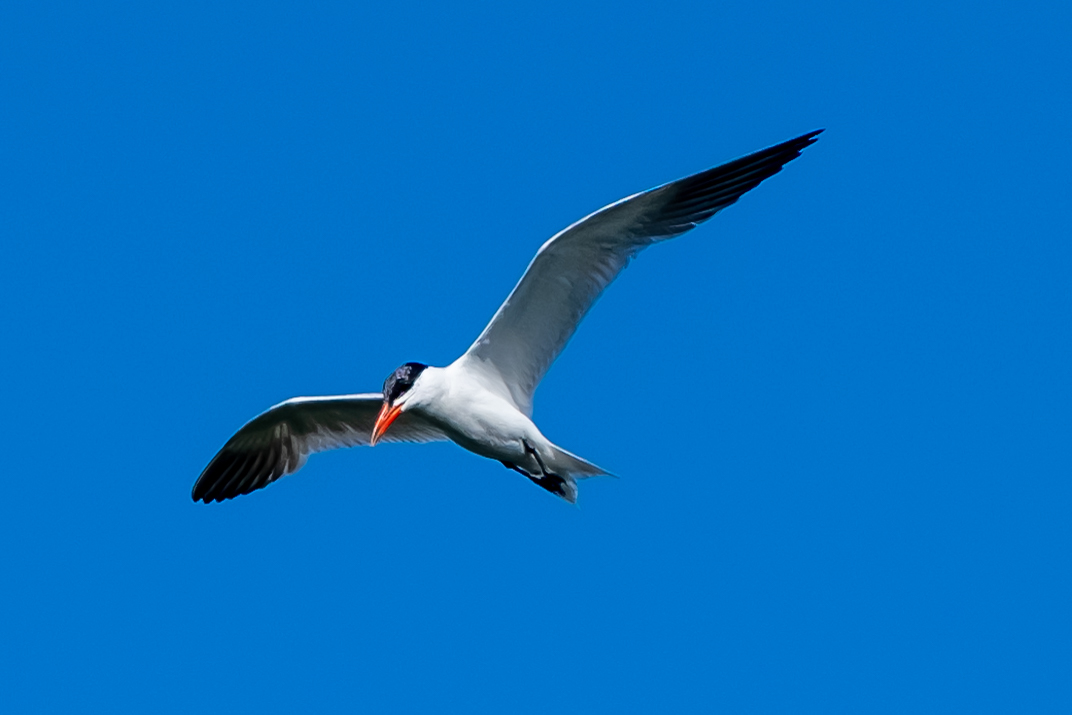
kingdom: Animalia
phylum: Chordata
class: Aves
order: Charadriiformes
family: Laridae
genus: Hydroprogne
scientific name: Hydroprogne caspia
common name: Caspian tern
